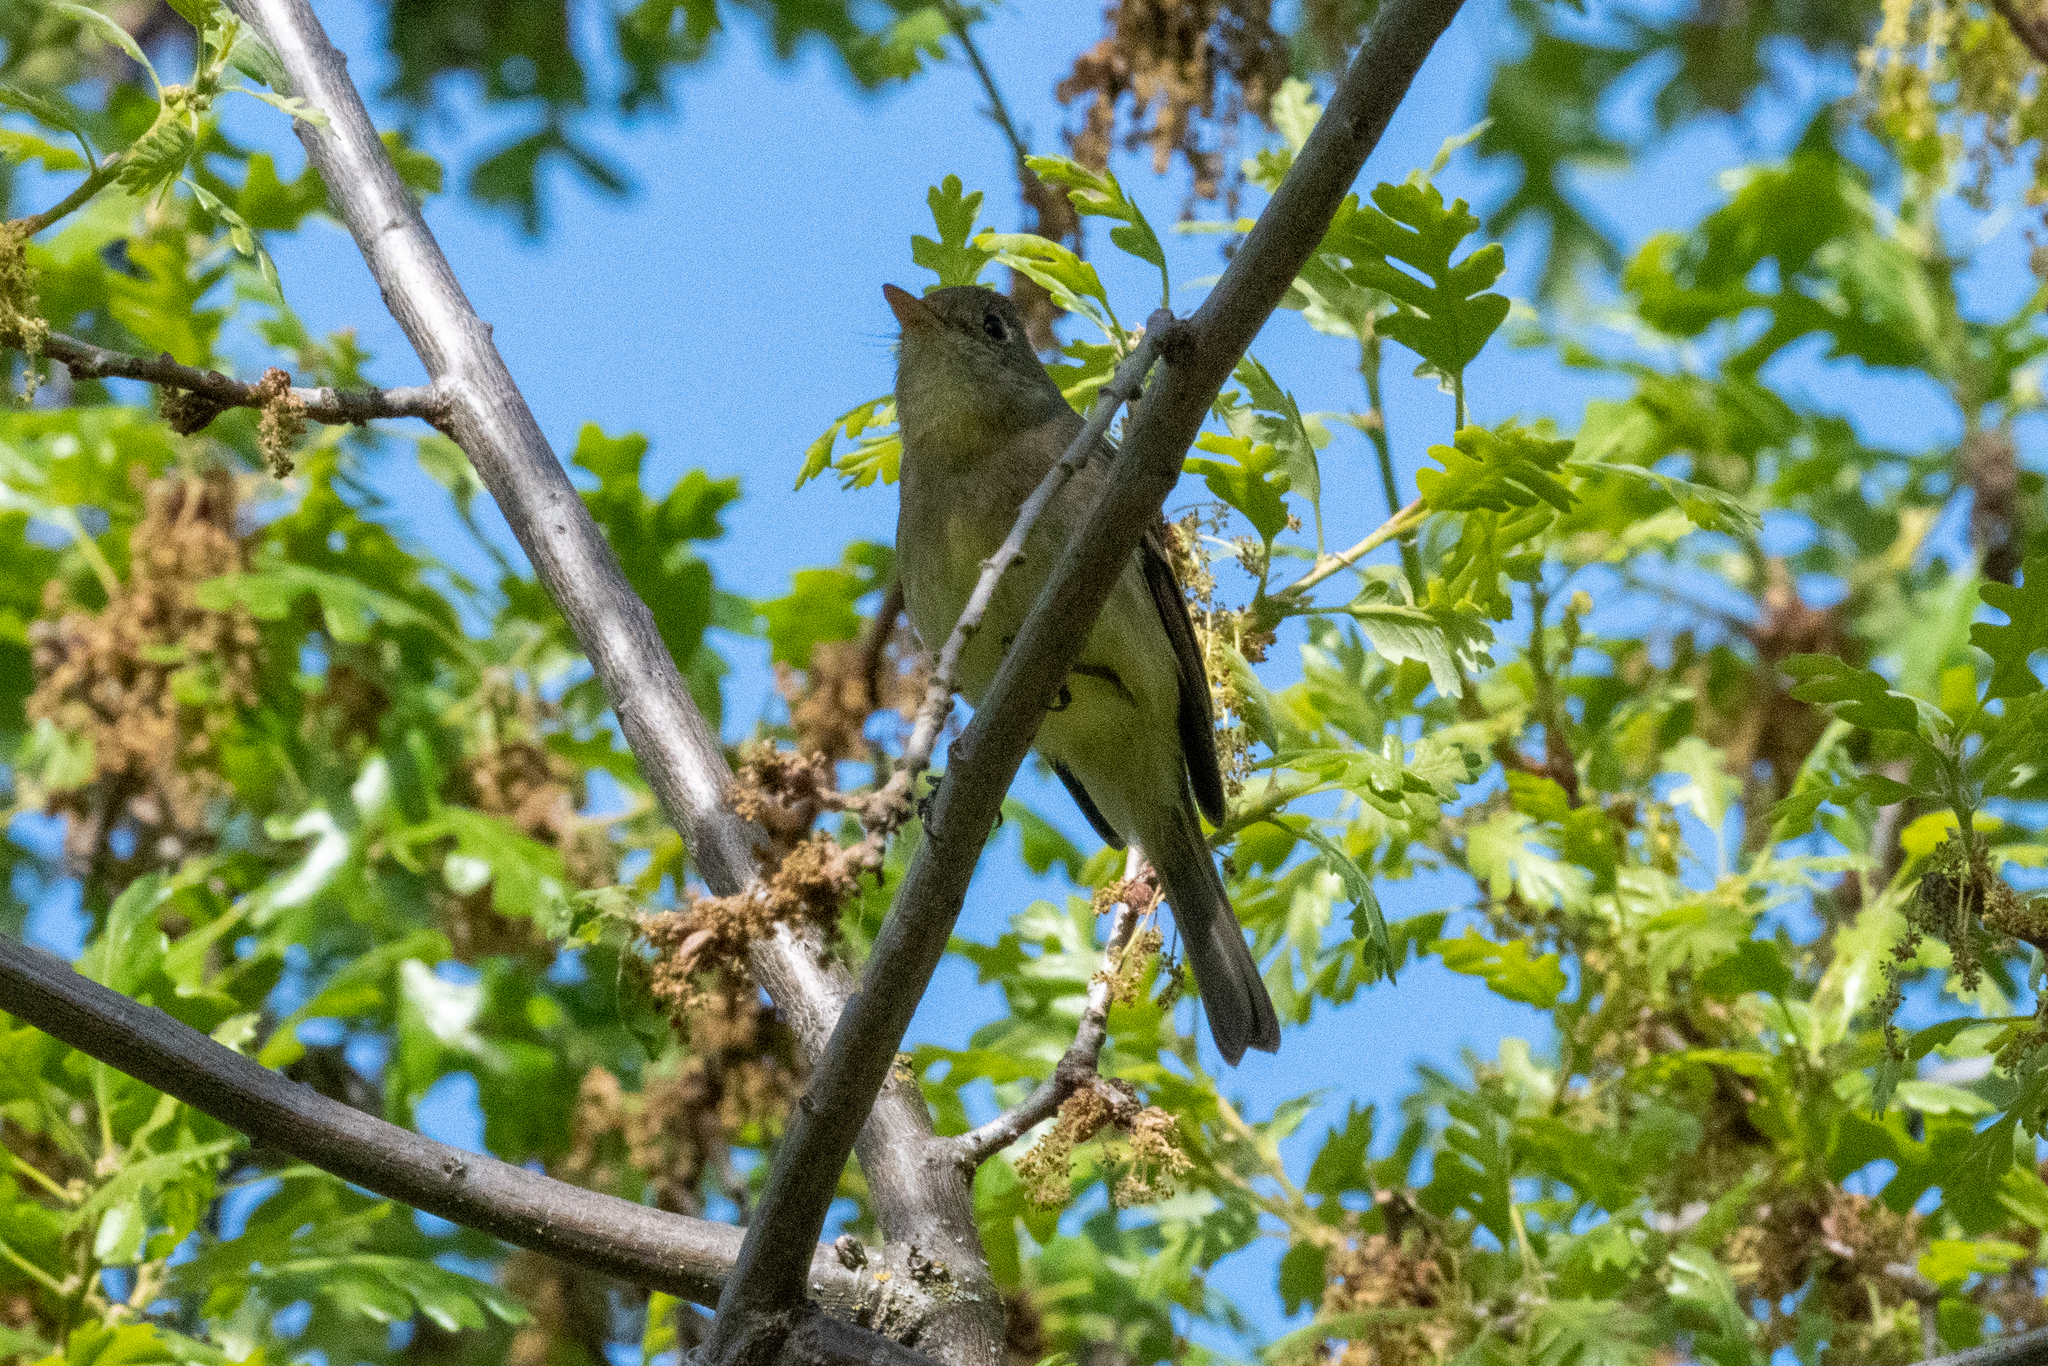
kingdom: Animalia
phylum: Chordata
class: Aves
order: Passeriformes
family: Tyrannidae
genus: Empidonax
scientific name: Empidonax difficilis
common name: Pacific-slope flycatcher
